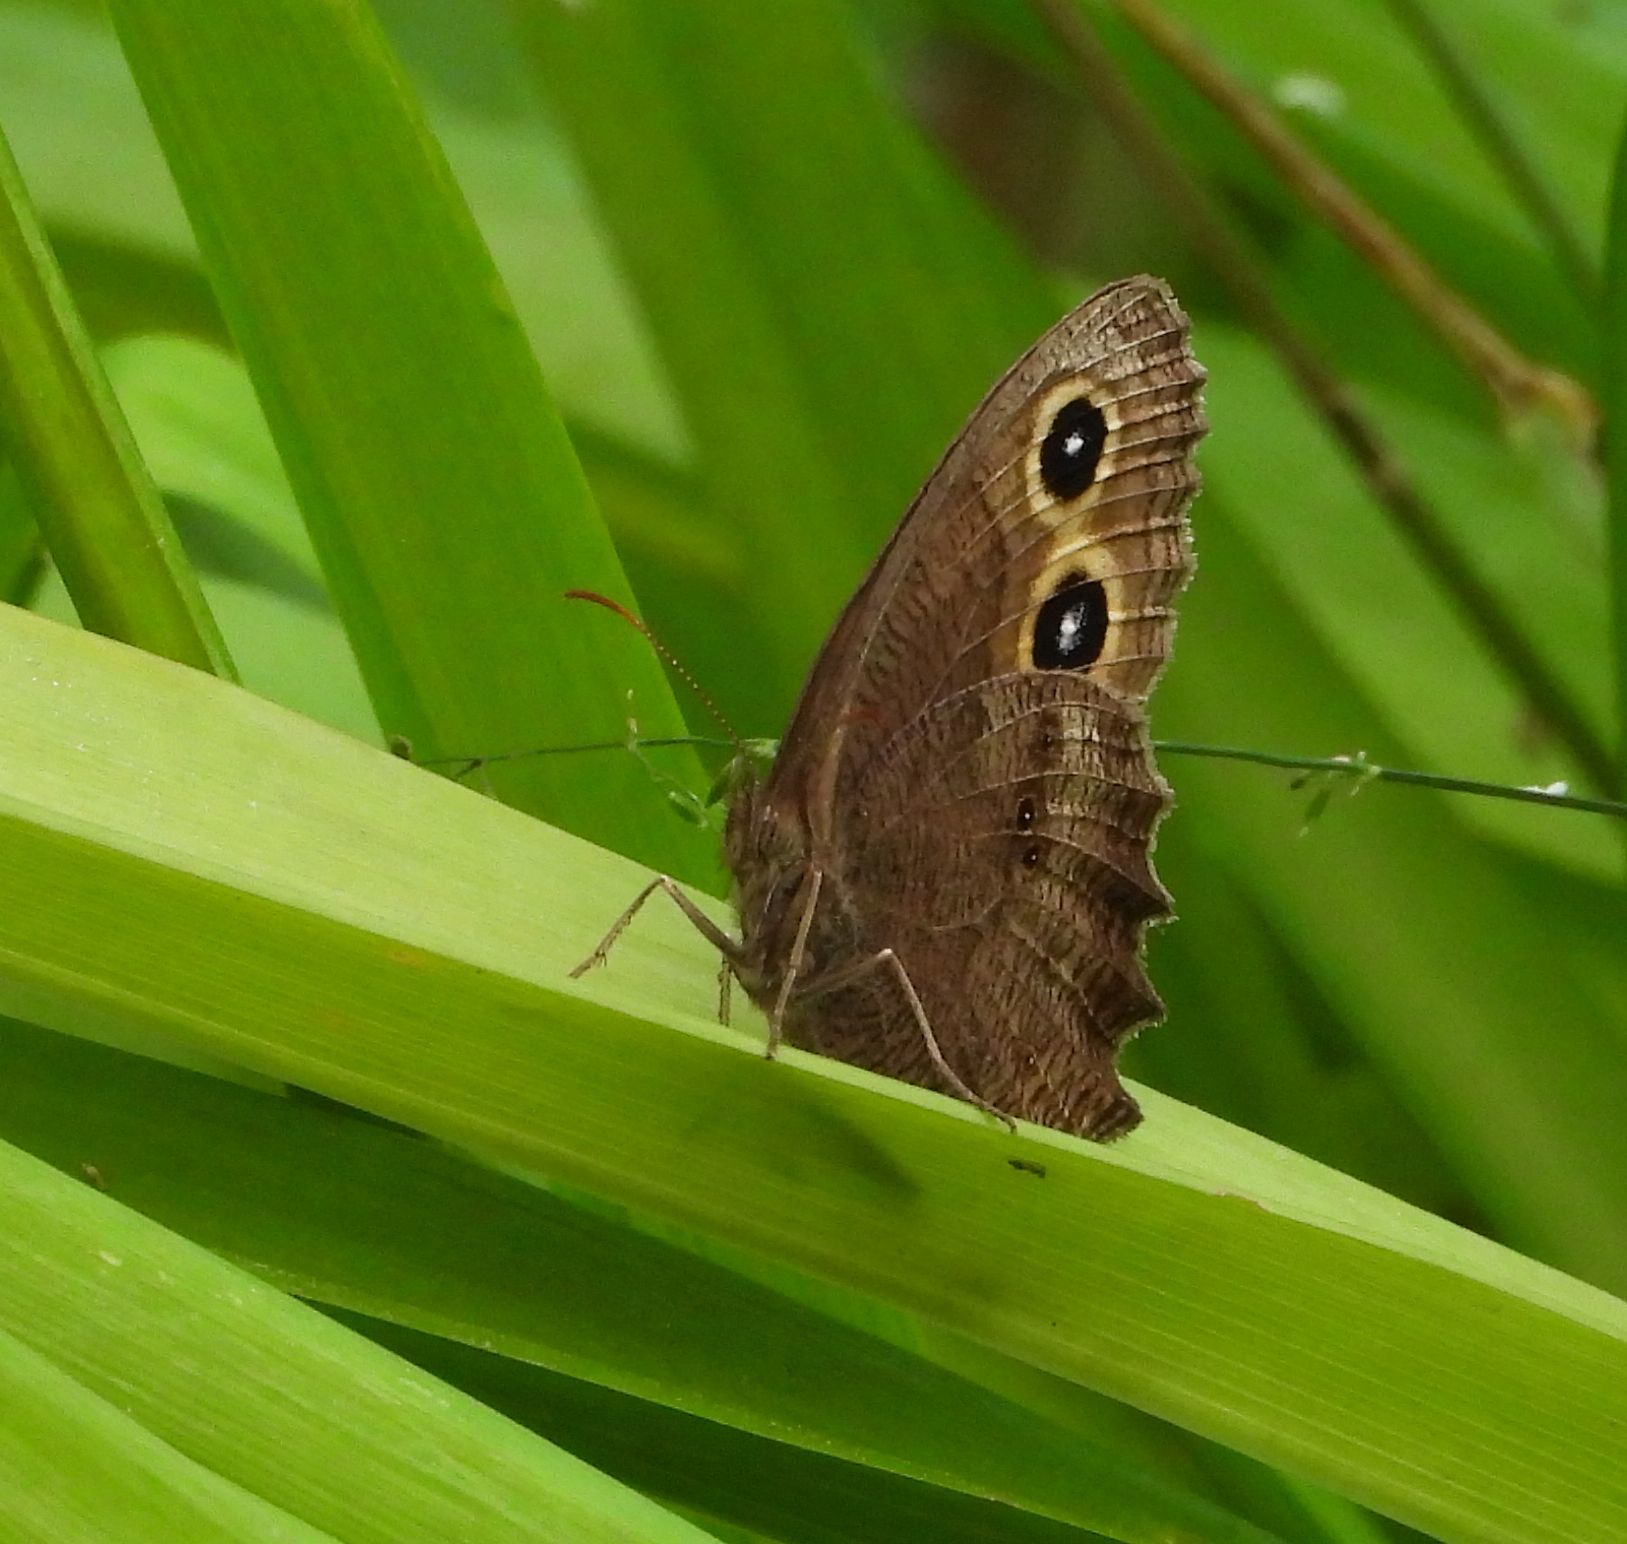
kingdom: Animalia
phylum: Arthropoda
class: Insecta
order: Lepidoptera
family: Nymphalidae
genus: Cercyonis
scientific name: Cercyonis pegala
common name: Common wood-nymph
